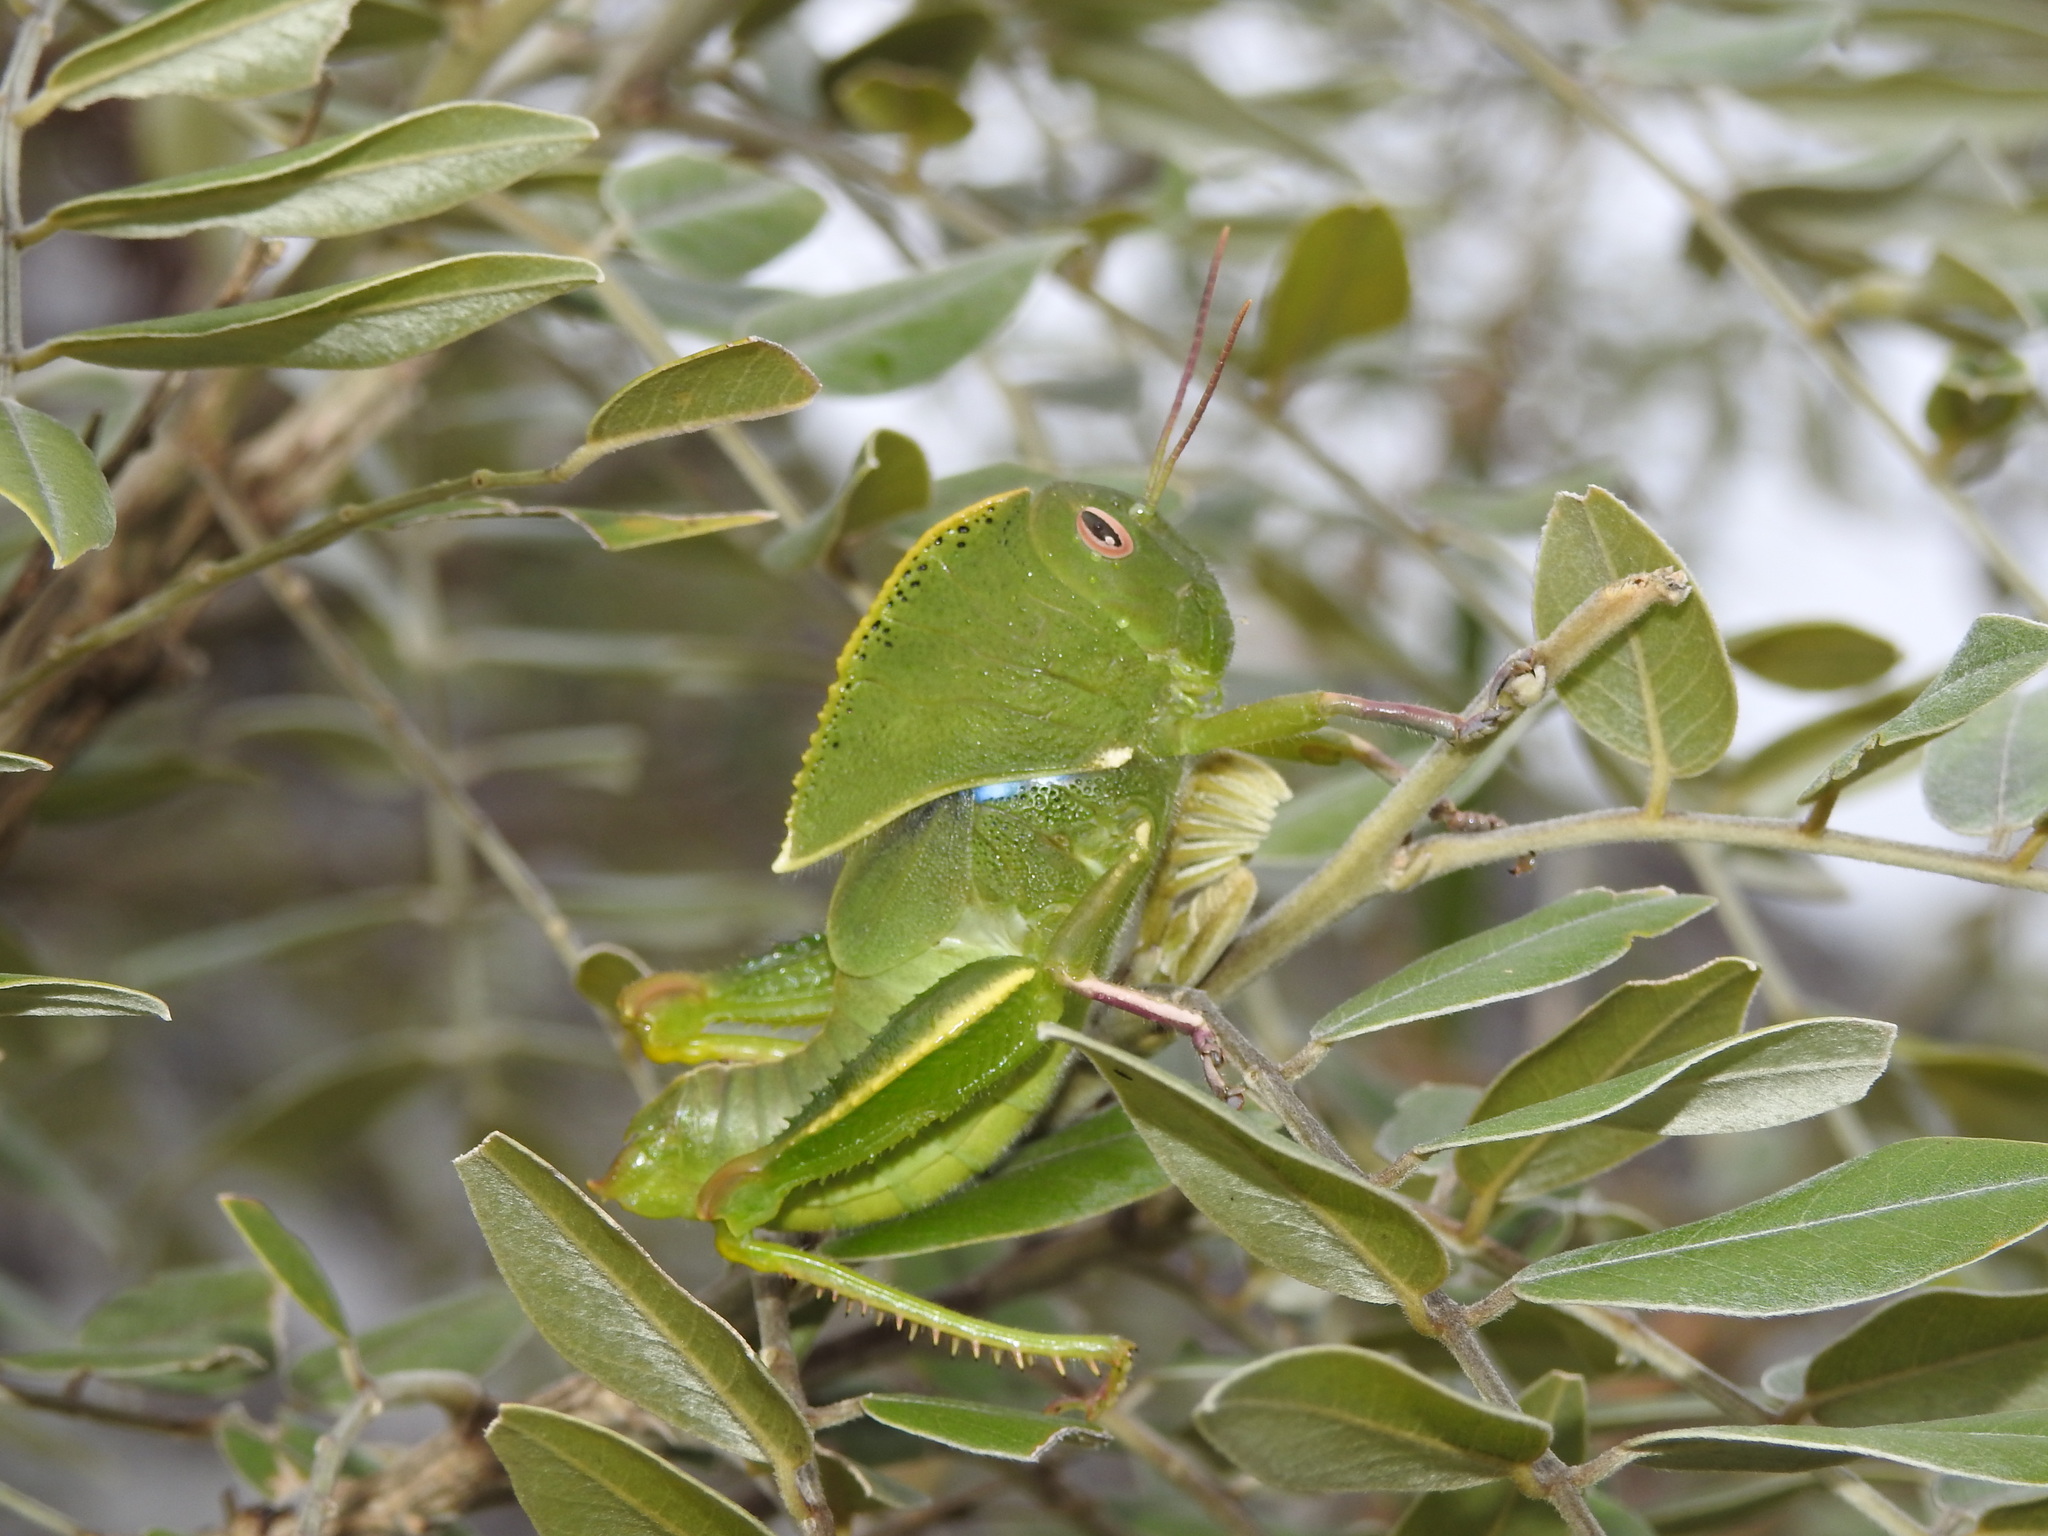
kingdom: Animalia
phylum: Arthropoda
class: Insecta
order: Orthoptera
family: Acrididae
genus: Teratodes
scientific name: Teratodes brachypterus
